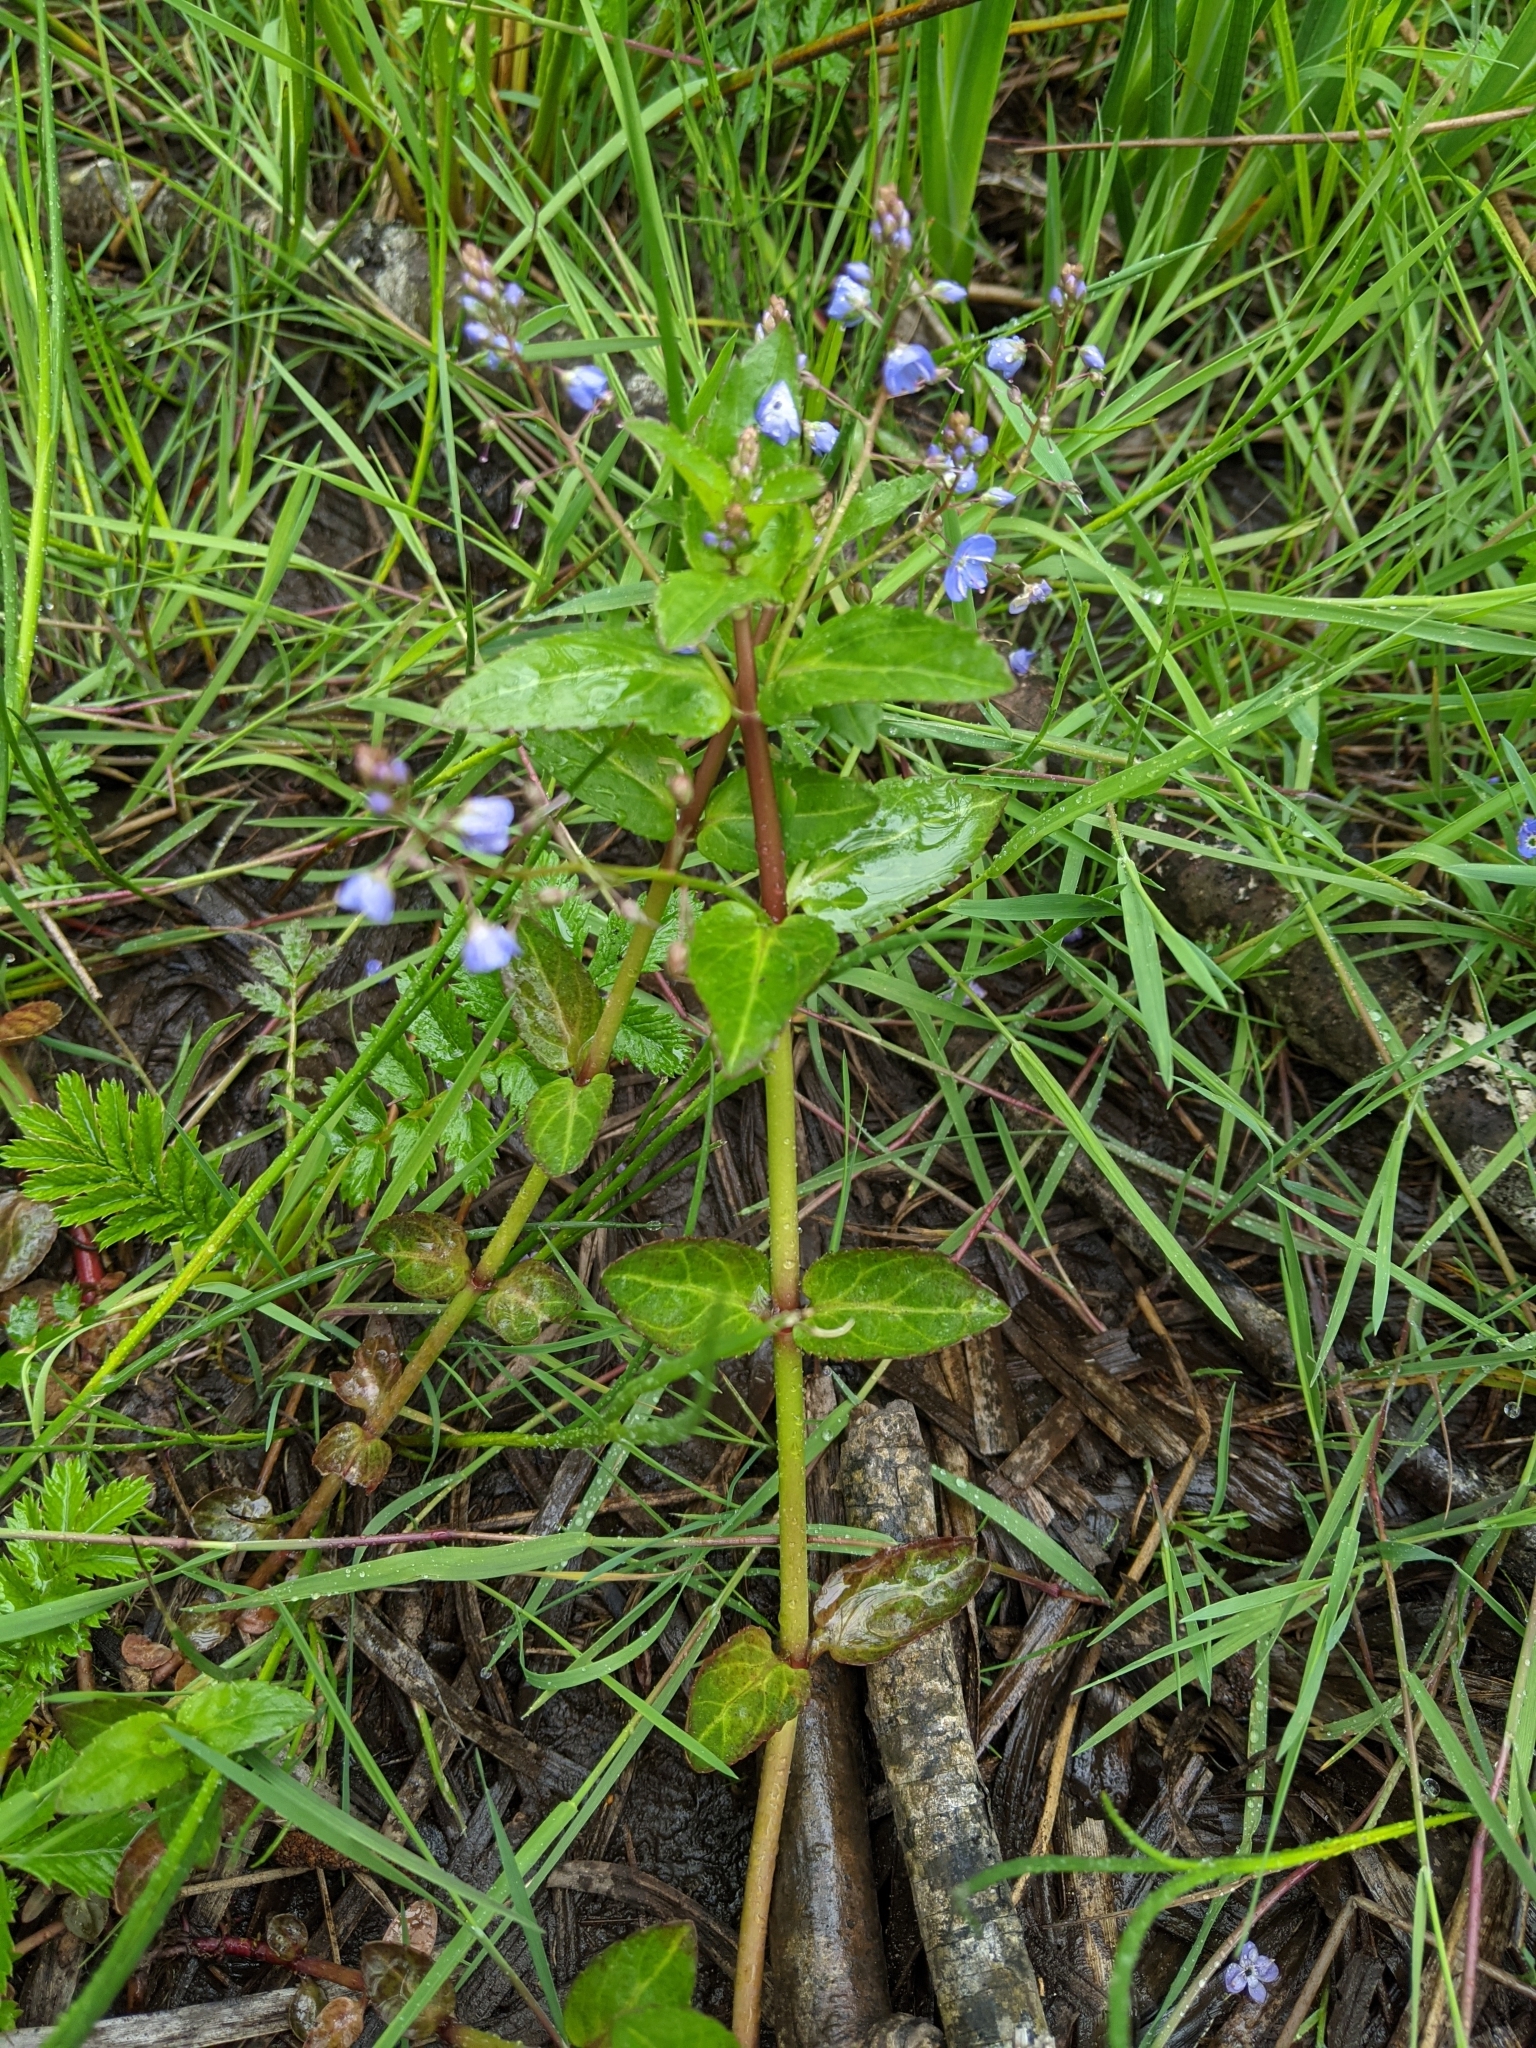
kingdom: Plantae
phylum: Tracheophyta
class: Magnoliopsida
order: Lamiales
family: Plantaginaceae
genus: Veronica
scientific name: Veronica americana
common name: American brooklime
